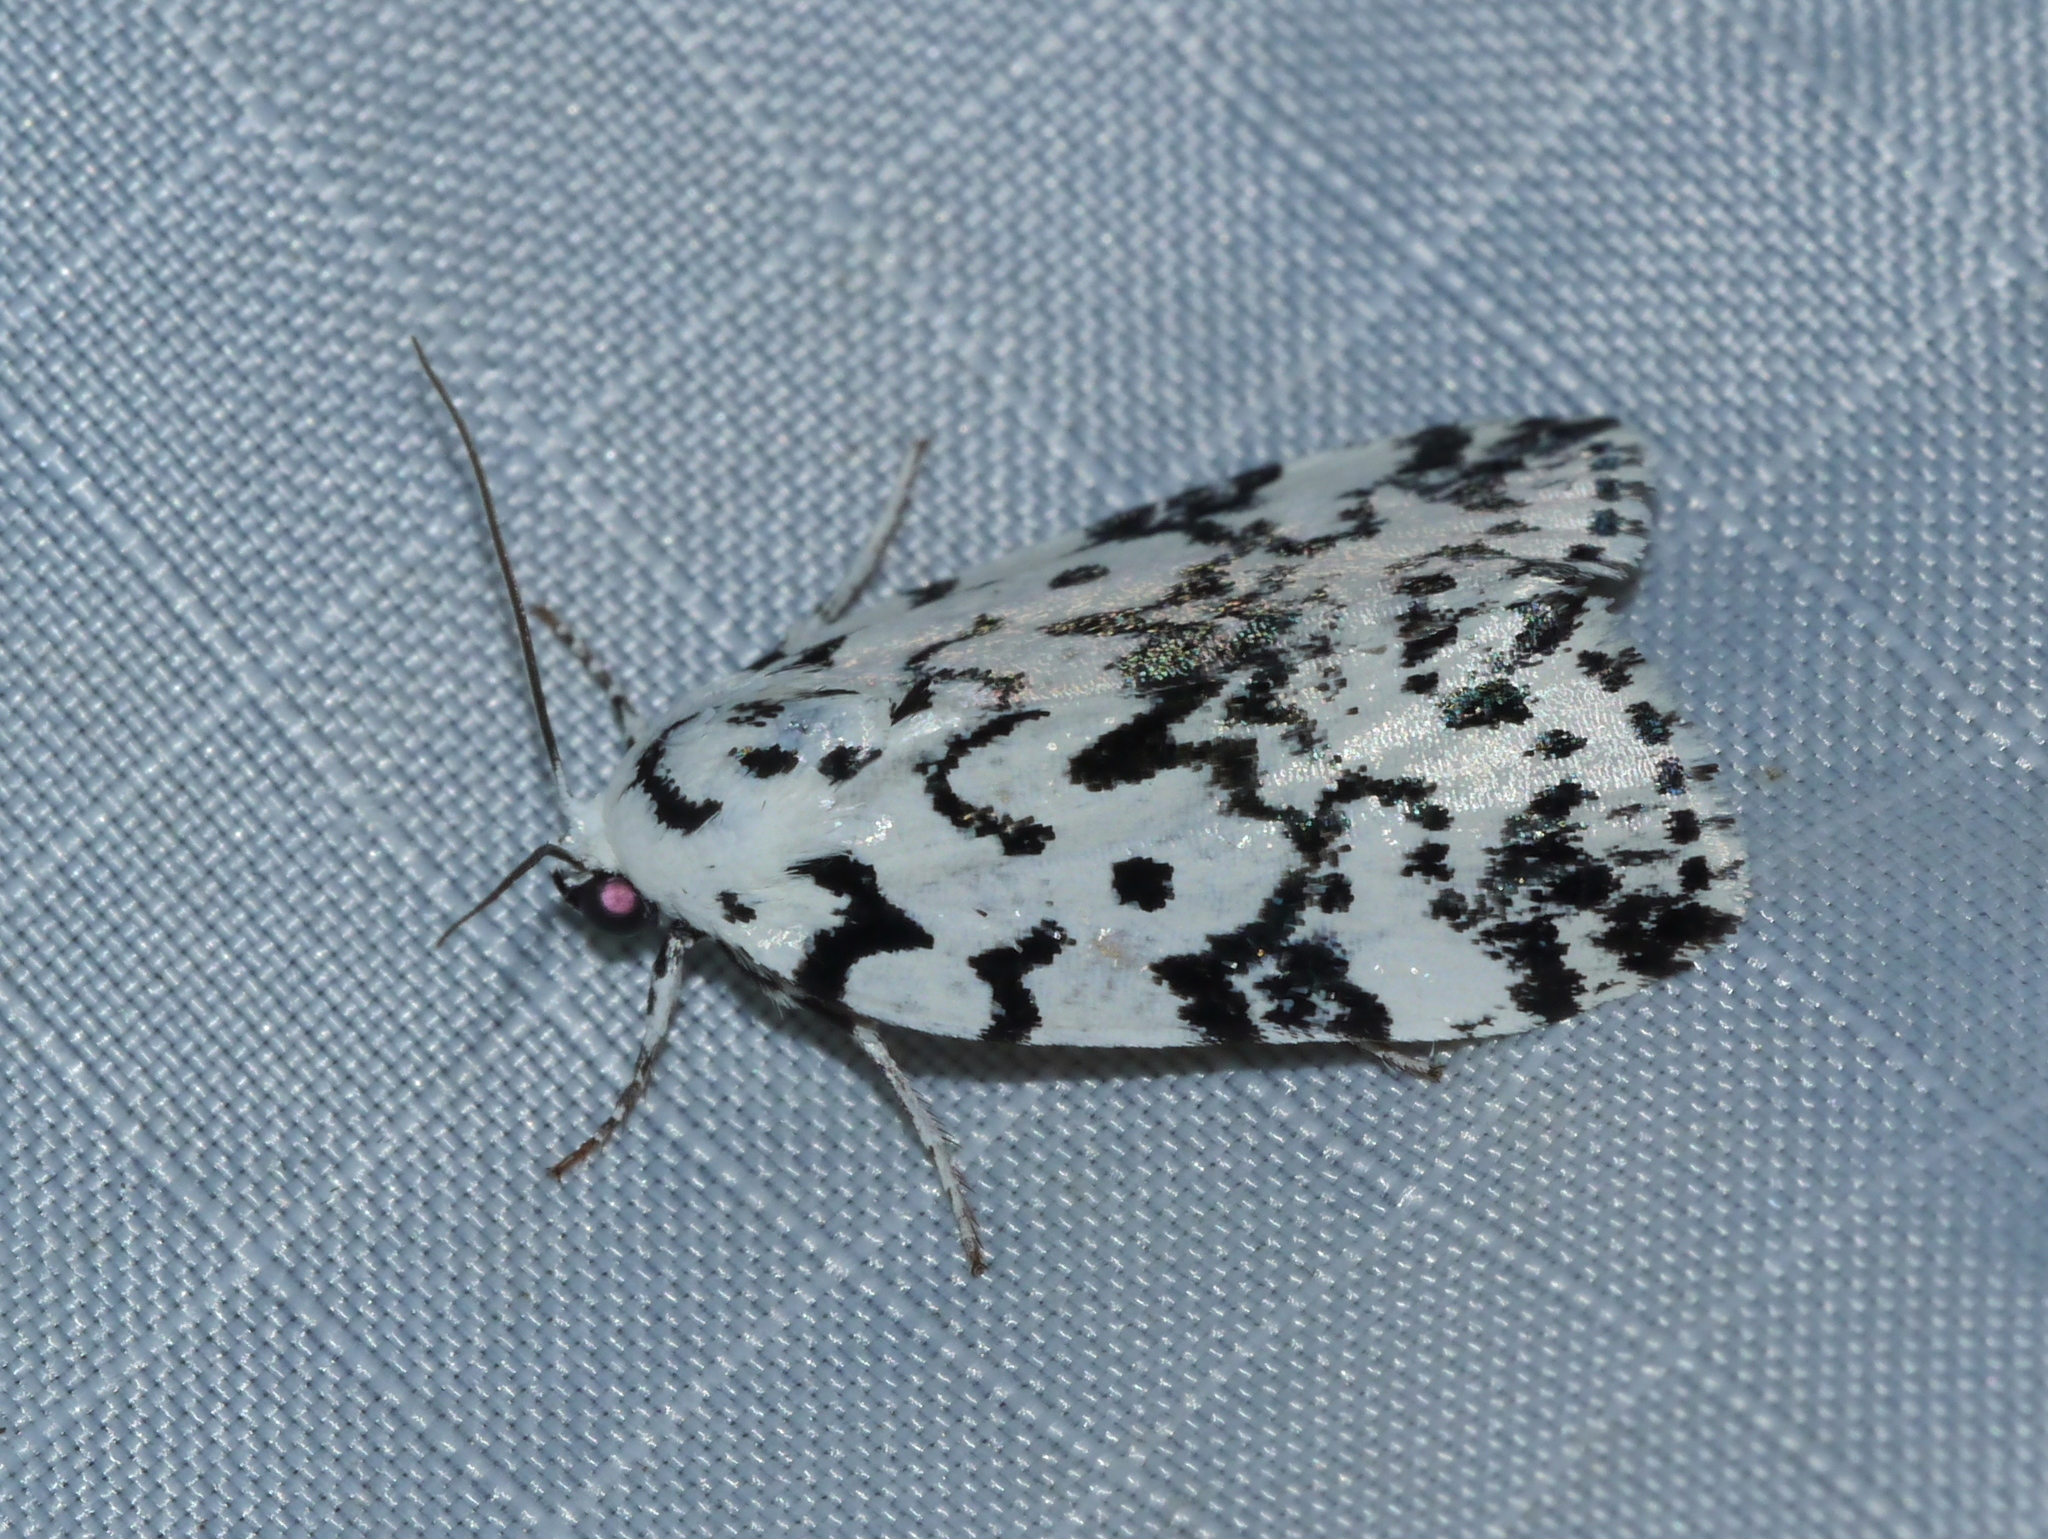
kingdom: Animalia
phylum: Arthropoda
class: Insecta
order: Lepidoptera
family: Noctuidae
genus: Polygrammate
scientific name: Polygrammate hebraeicum
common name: Hebrew moth
